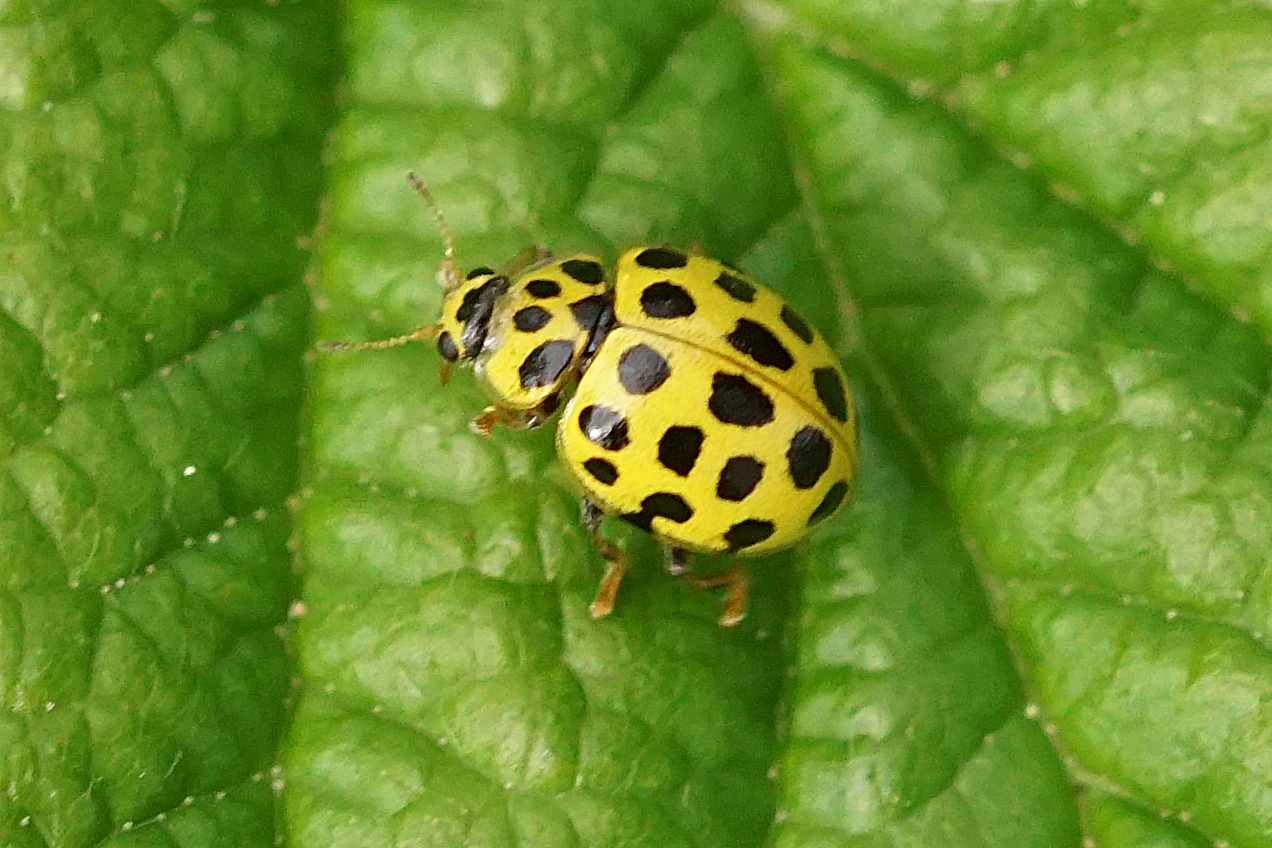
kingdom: Animalia
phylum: Arthropoda
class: Insecta
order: Coleoptera
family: Coccinellidae
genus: Psyllobora
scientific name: Psyllobora vigintiduopunctata
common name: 22-spot ladybird
